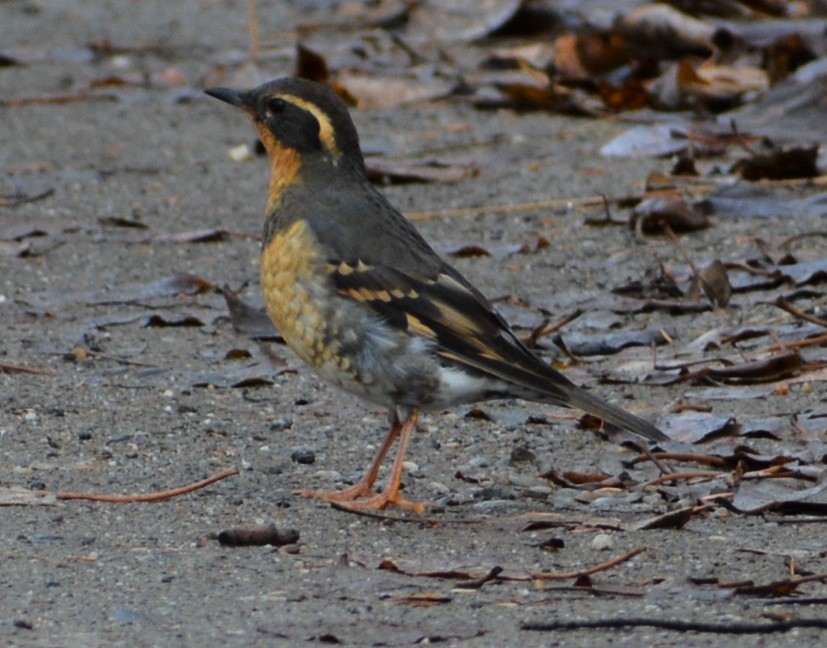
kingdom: Animalia
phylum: Chordata
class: Aves
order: Passeriformes
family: Turdidae
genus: Ixoreus
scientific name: Ixoreus naevius
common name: Varied thrush
